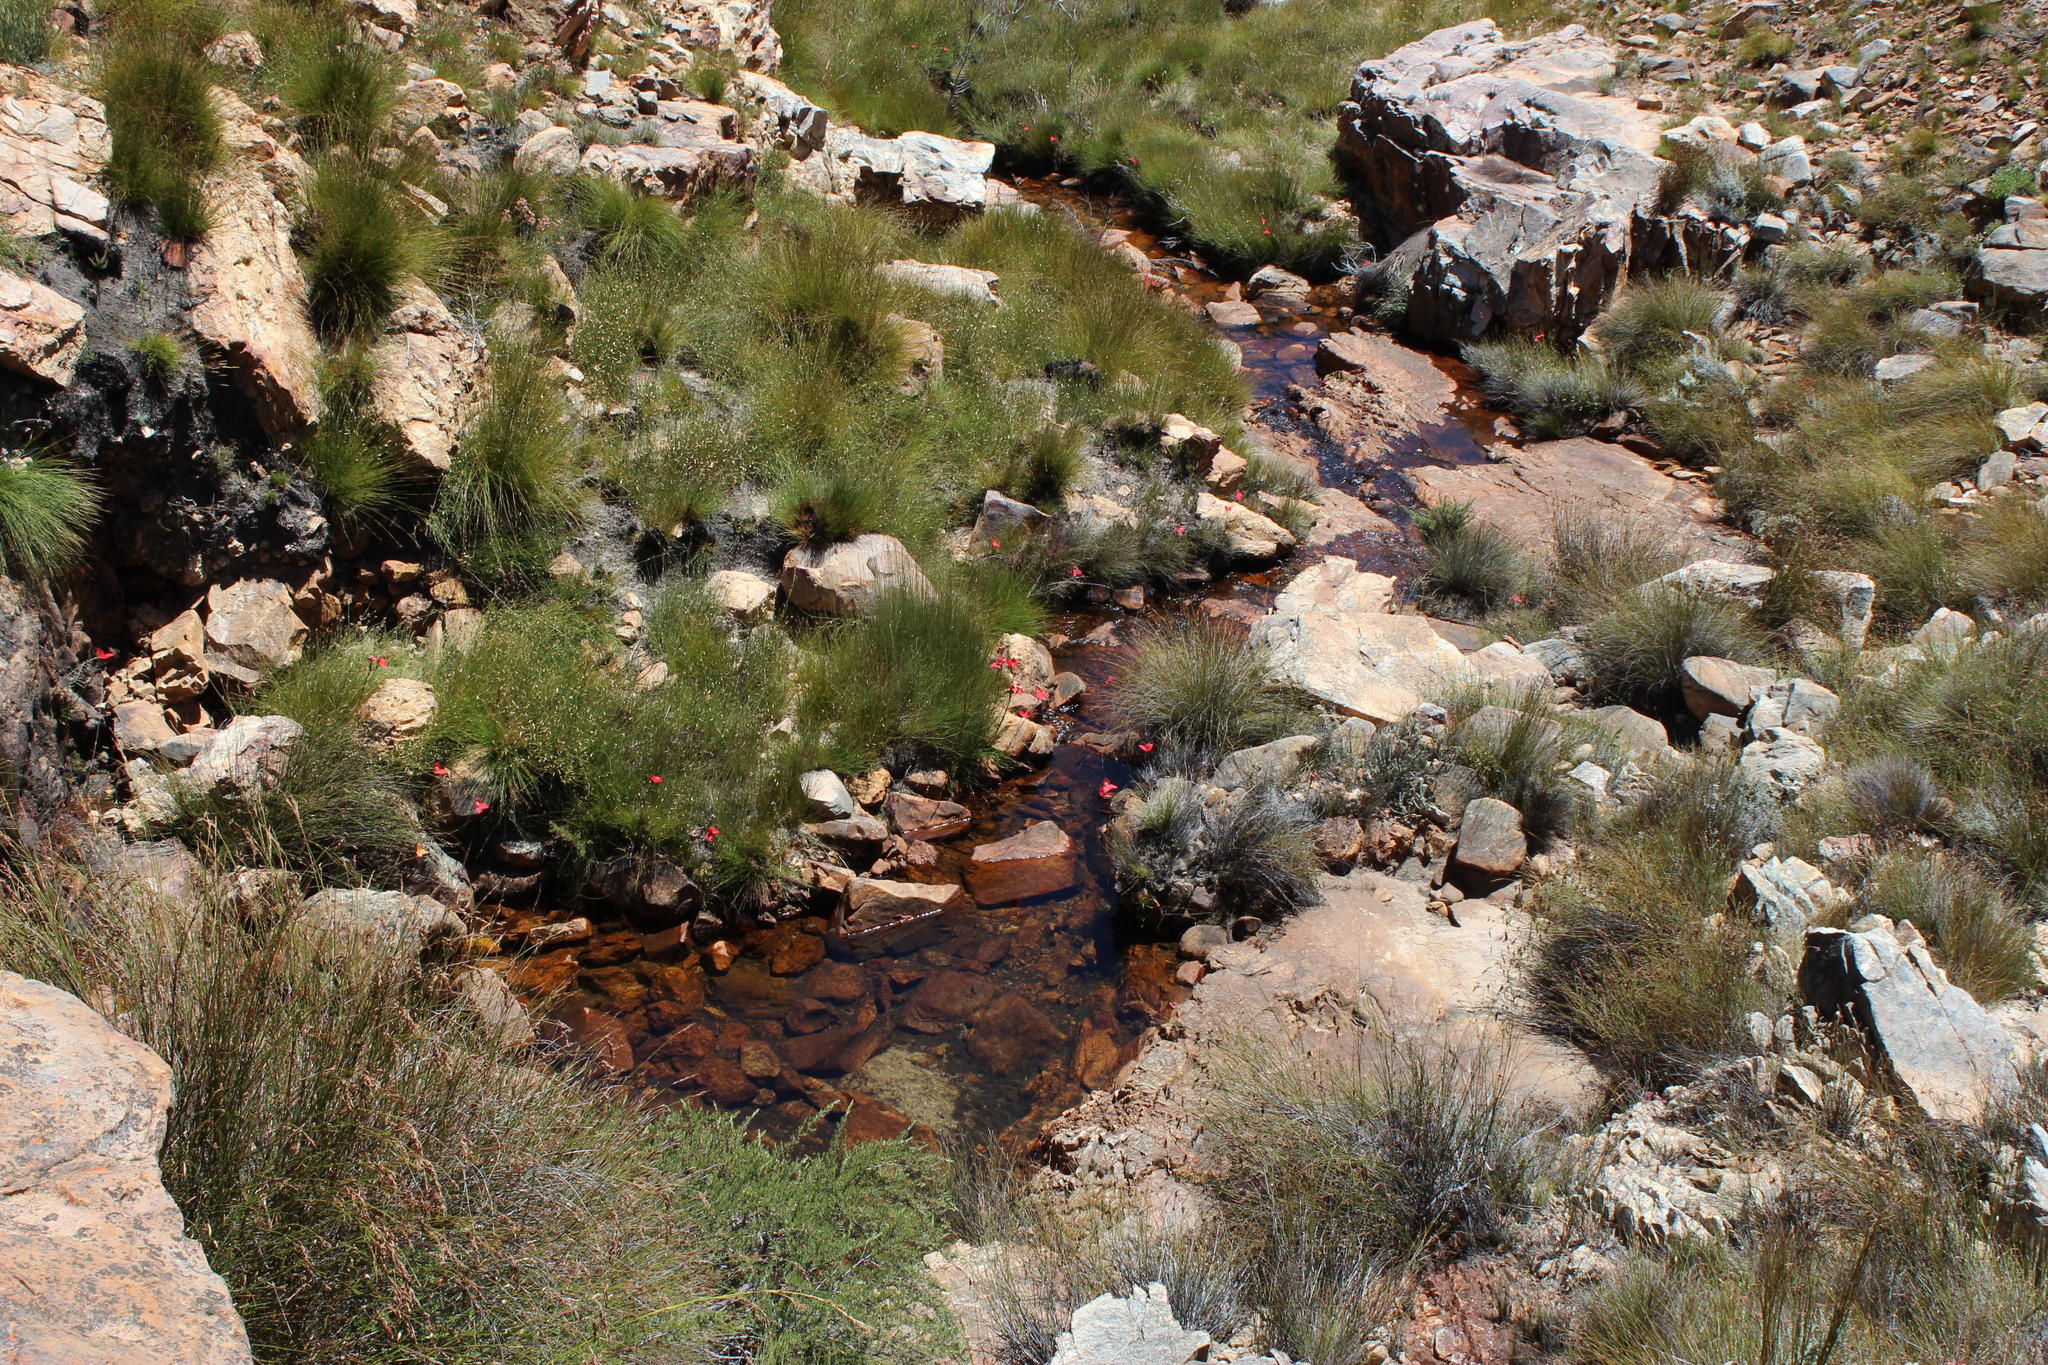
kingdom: Plantae
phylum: Tracheophyta
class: Liliopsida
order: Asparagales
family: Orchidaceae
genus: Disa
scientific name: Disa uniflora
